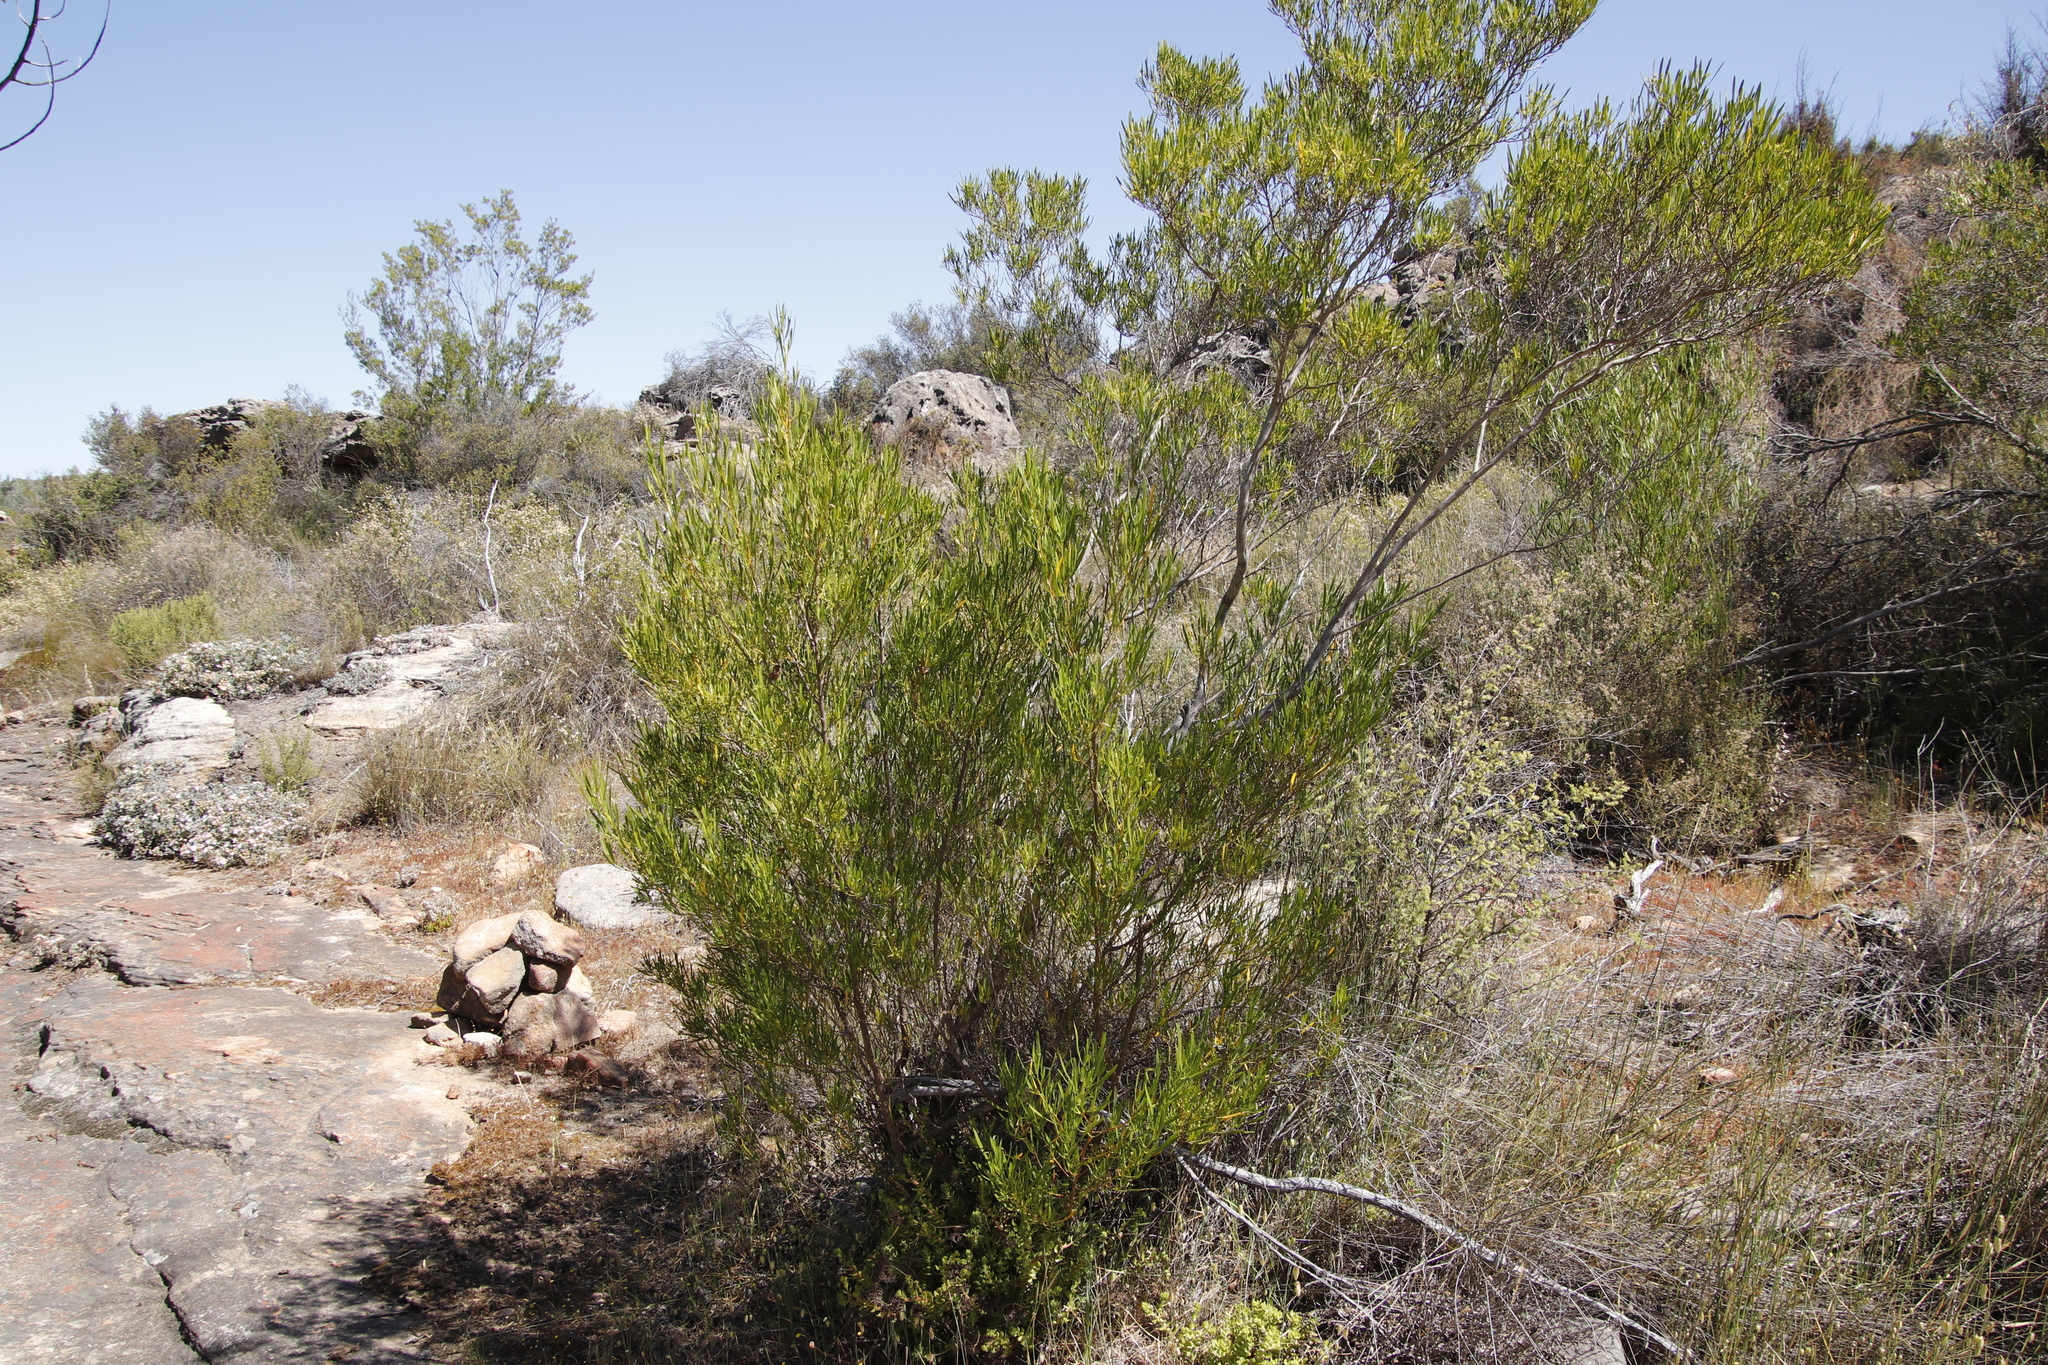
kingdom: Plantae
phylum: Tracheophyta
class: Magnoliopsida
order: Sapindales
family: Sapindaceae
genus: Dodonaea
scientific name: Dodonaea viscosa
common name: Hopbush
